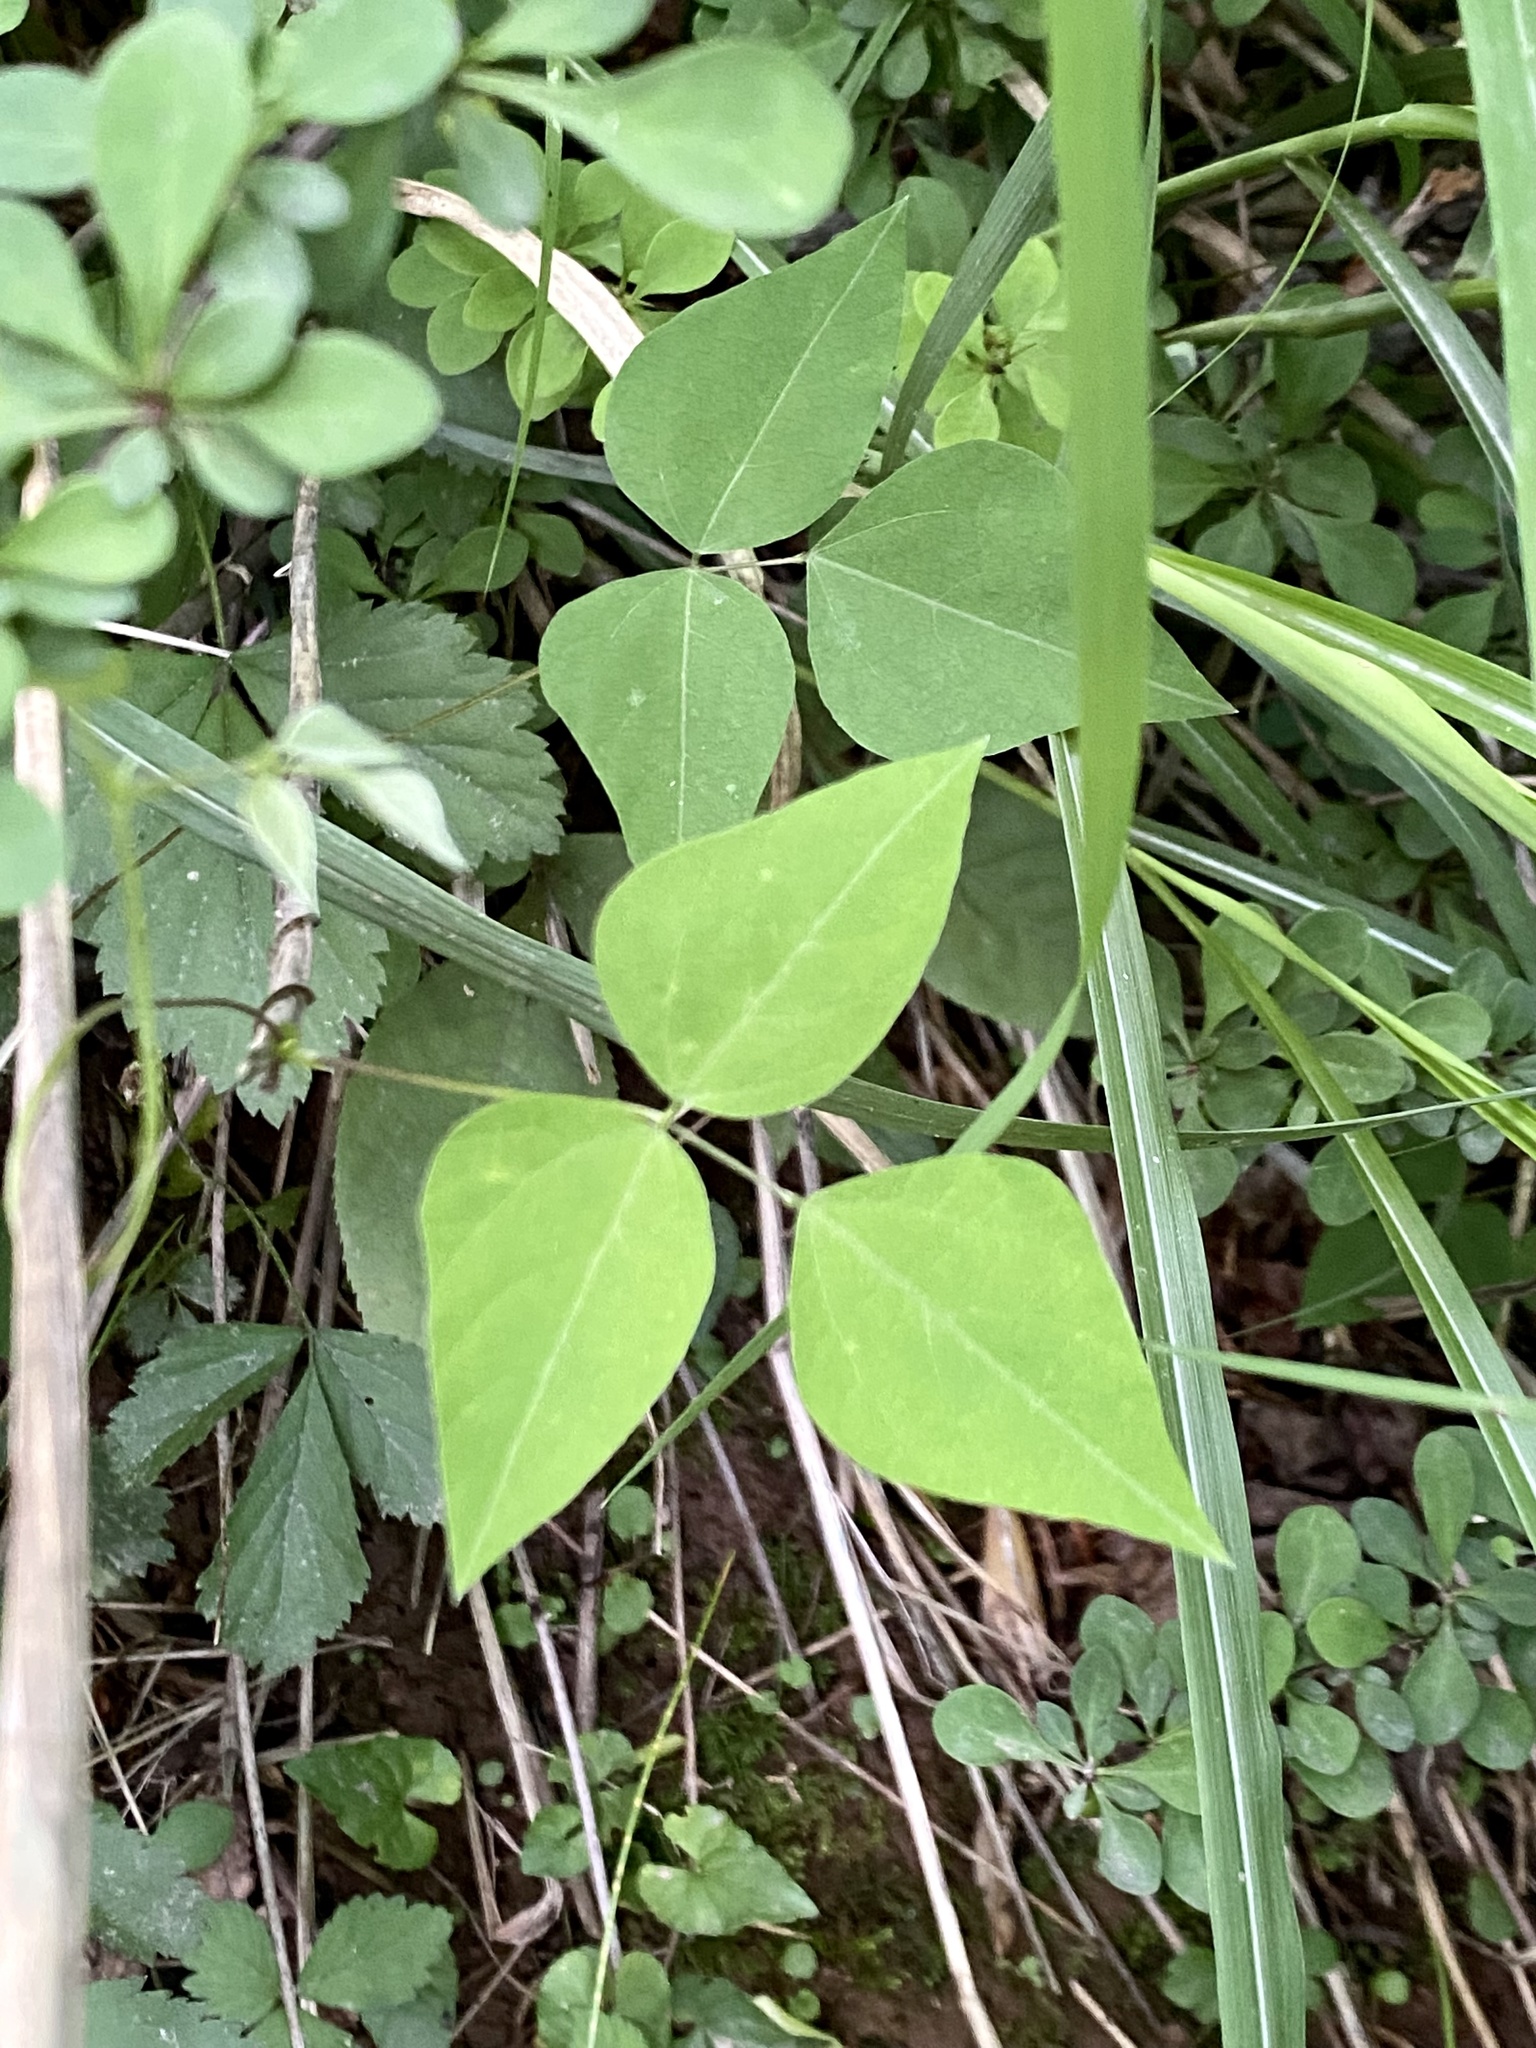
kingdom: Plantae
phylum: Tracheophyta
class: Magnoliopsida
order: Fabales
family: Fabaceae
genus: Amphicarpaea
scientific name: Amphicarpaea bracteata
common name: American hog peanut
